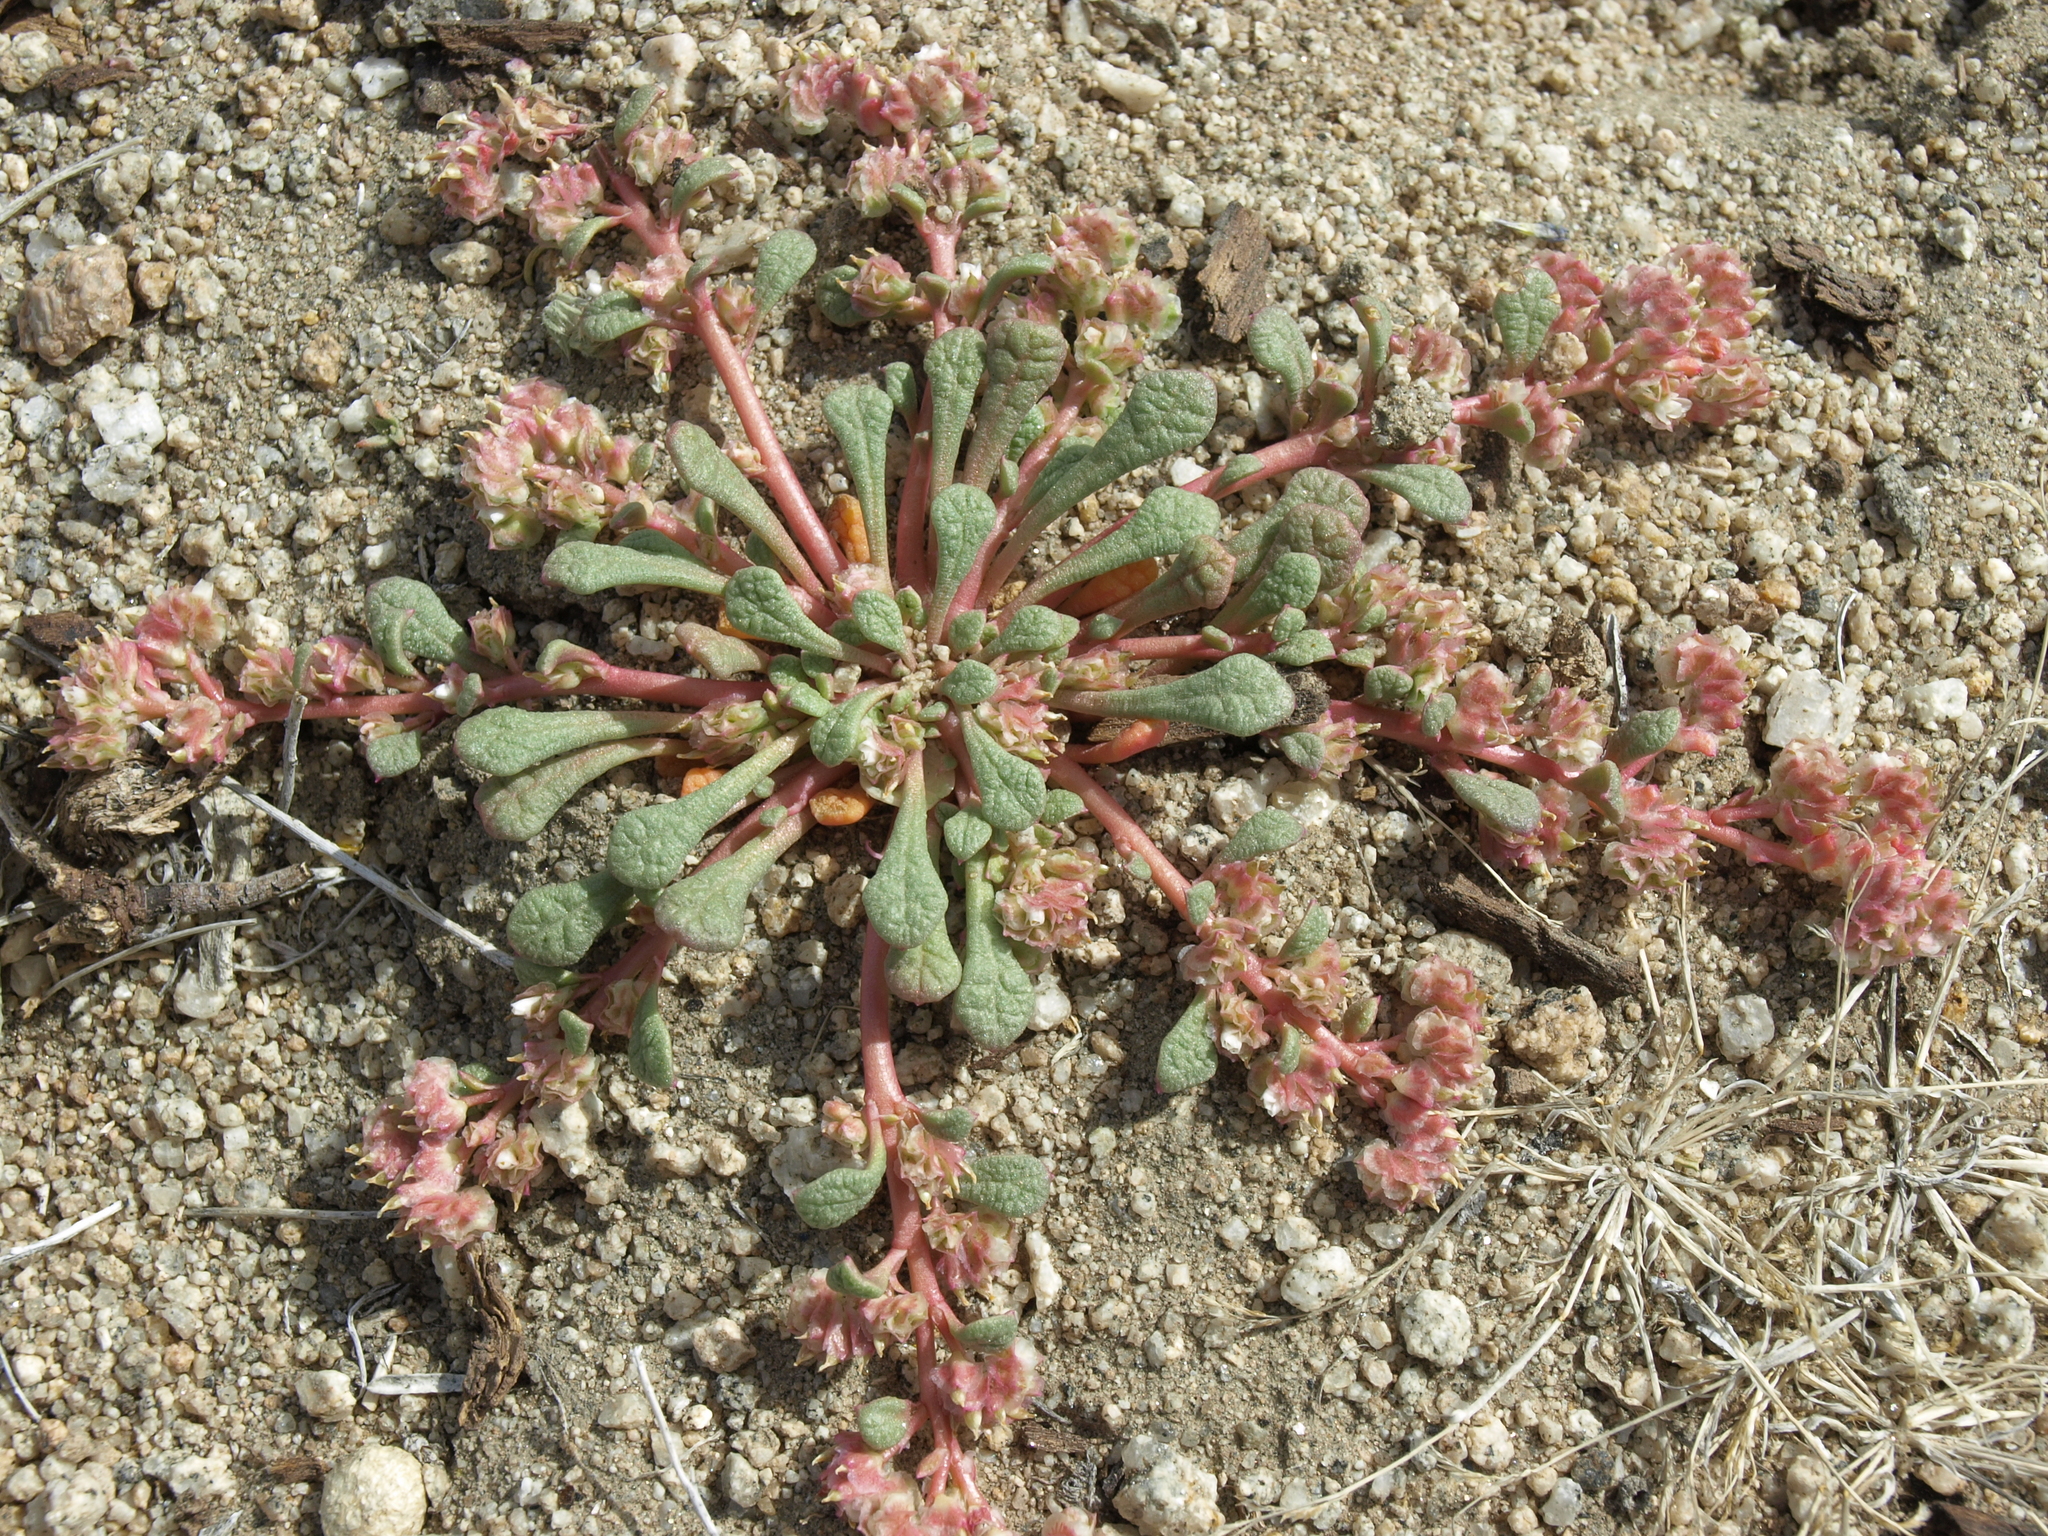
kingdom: Plantae
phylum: Tracheophyta
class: Magnoliopsida
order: Caryophyllales
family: Montiaceae
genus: Calyptridium
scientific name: Calyptridium nevadense
